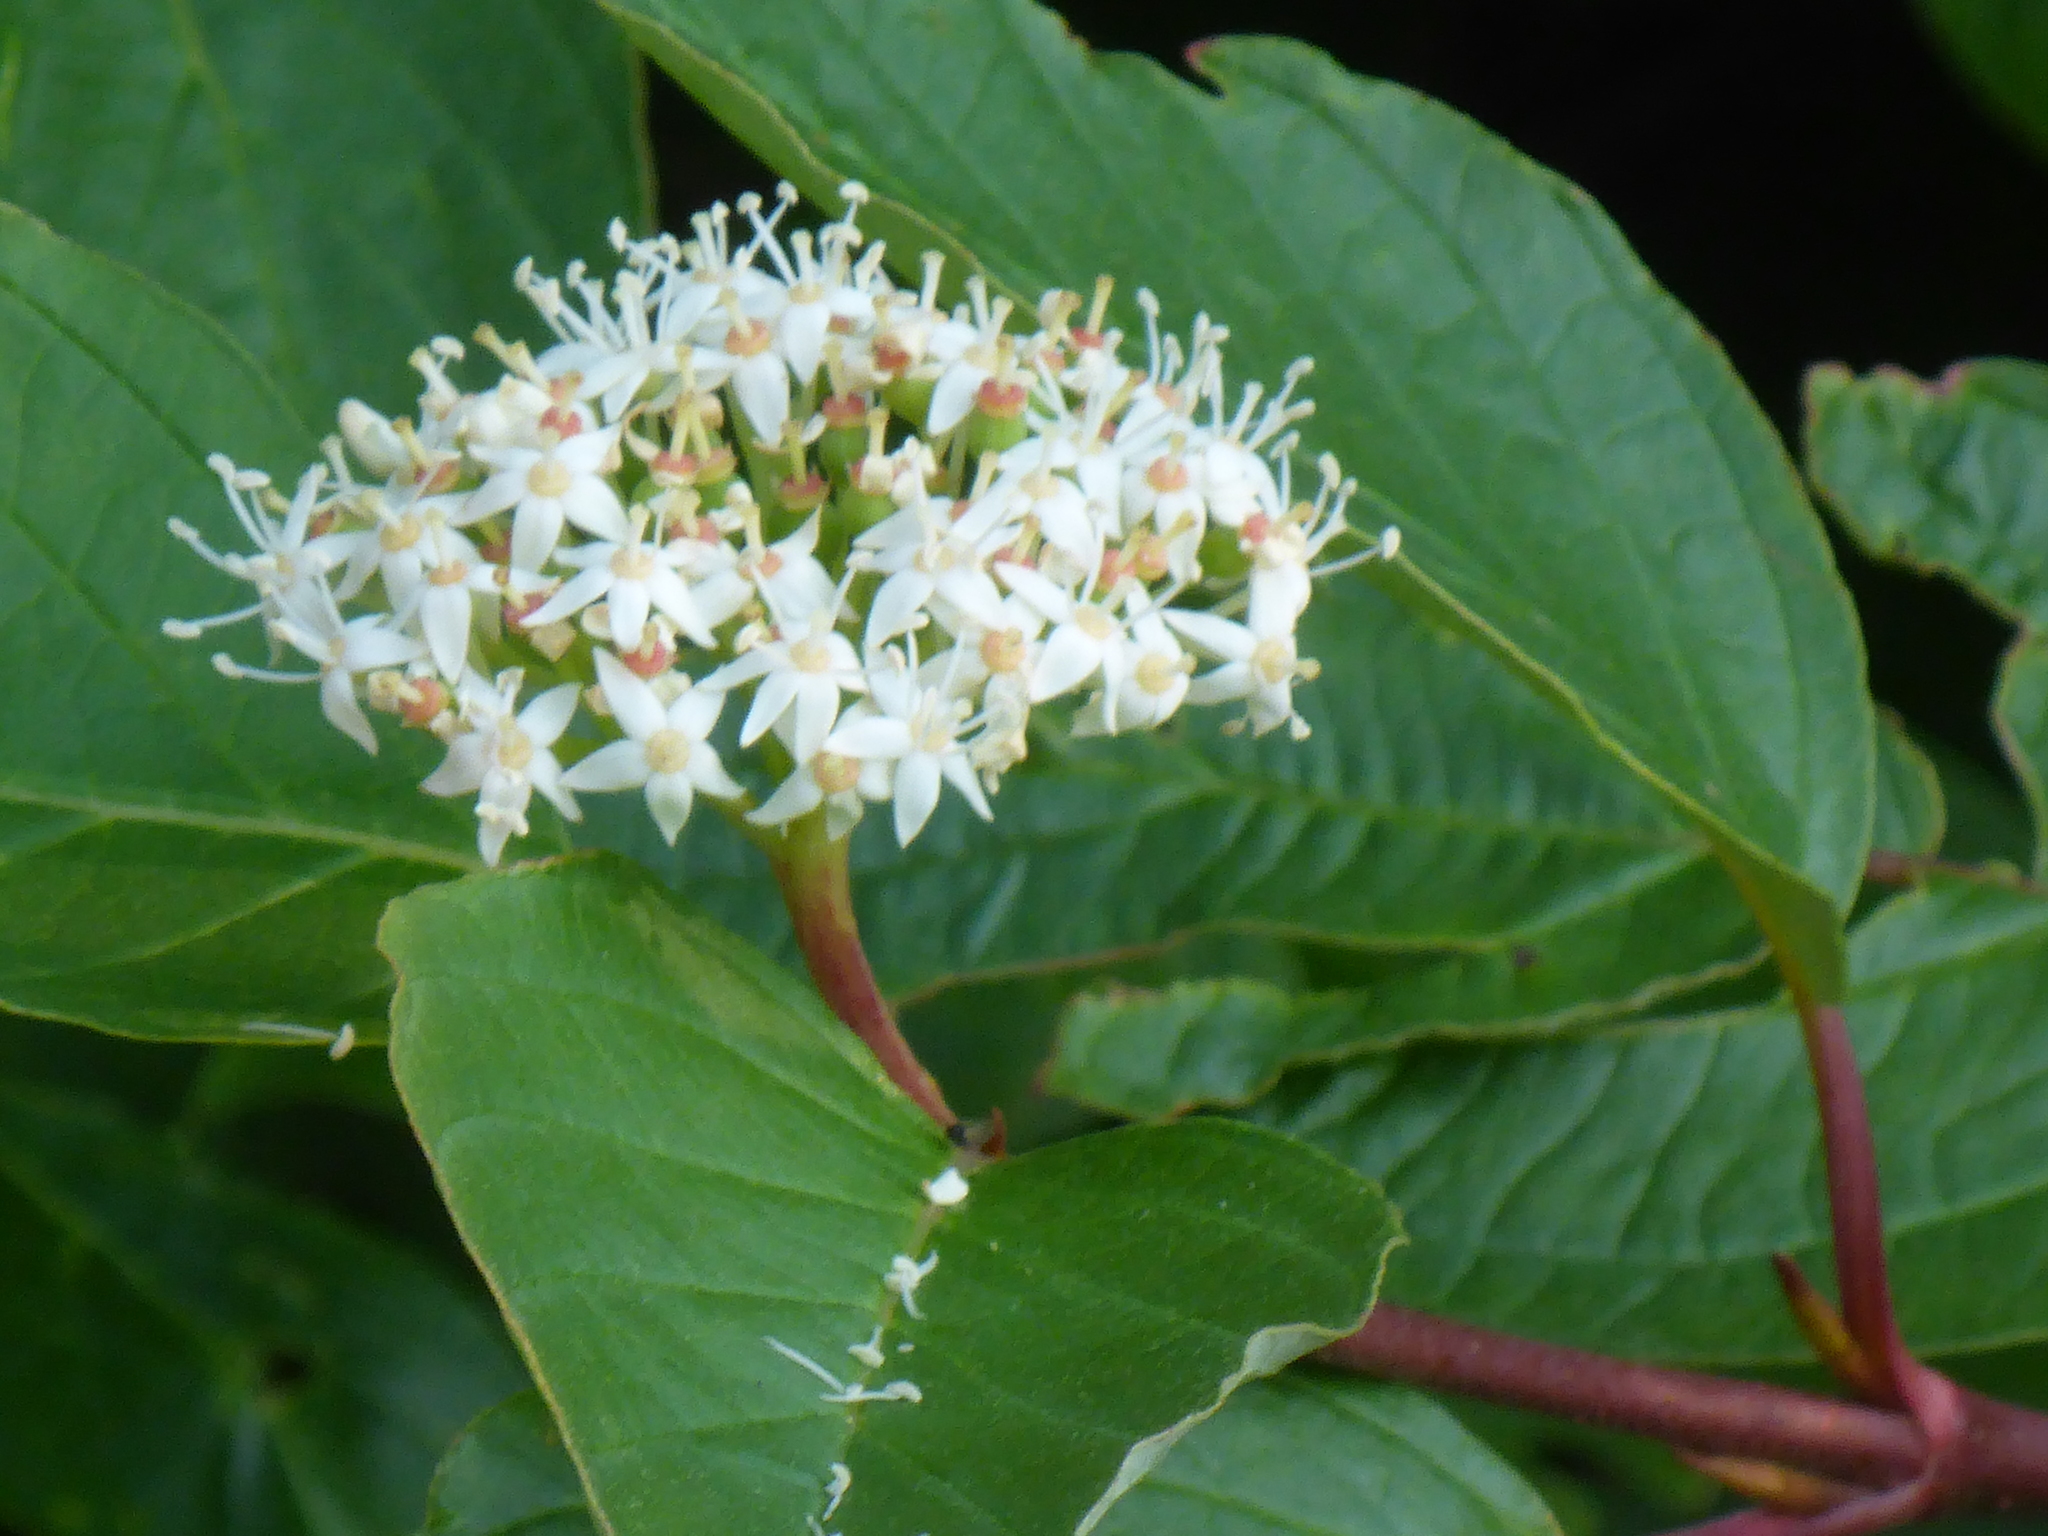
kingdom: Plantae
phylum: Tracheophyta
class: Magnoliopsida
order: Cornales
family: Cornaceae
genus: Cornus
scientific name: Cornus sericea
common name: Red-osier dogwood
